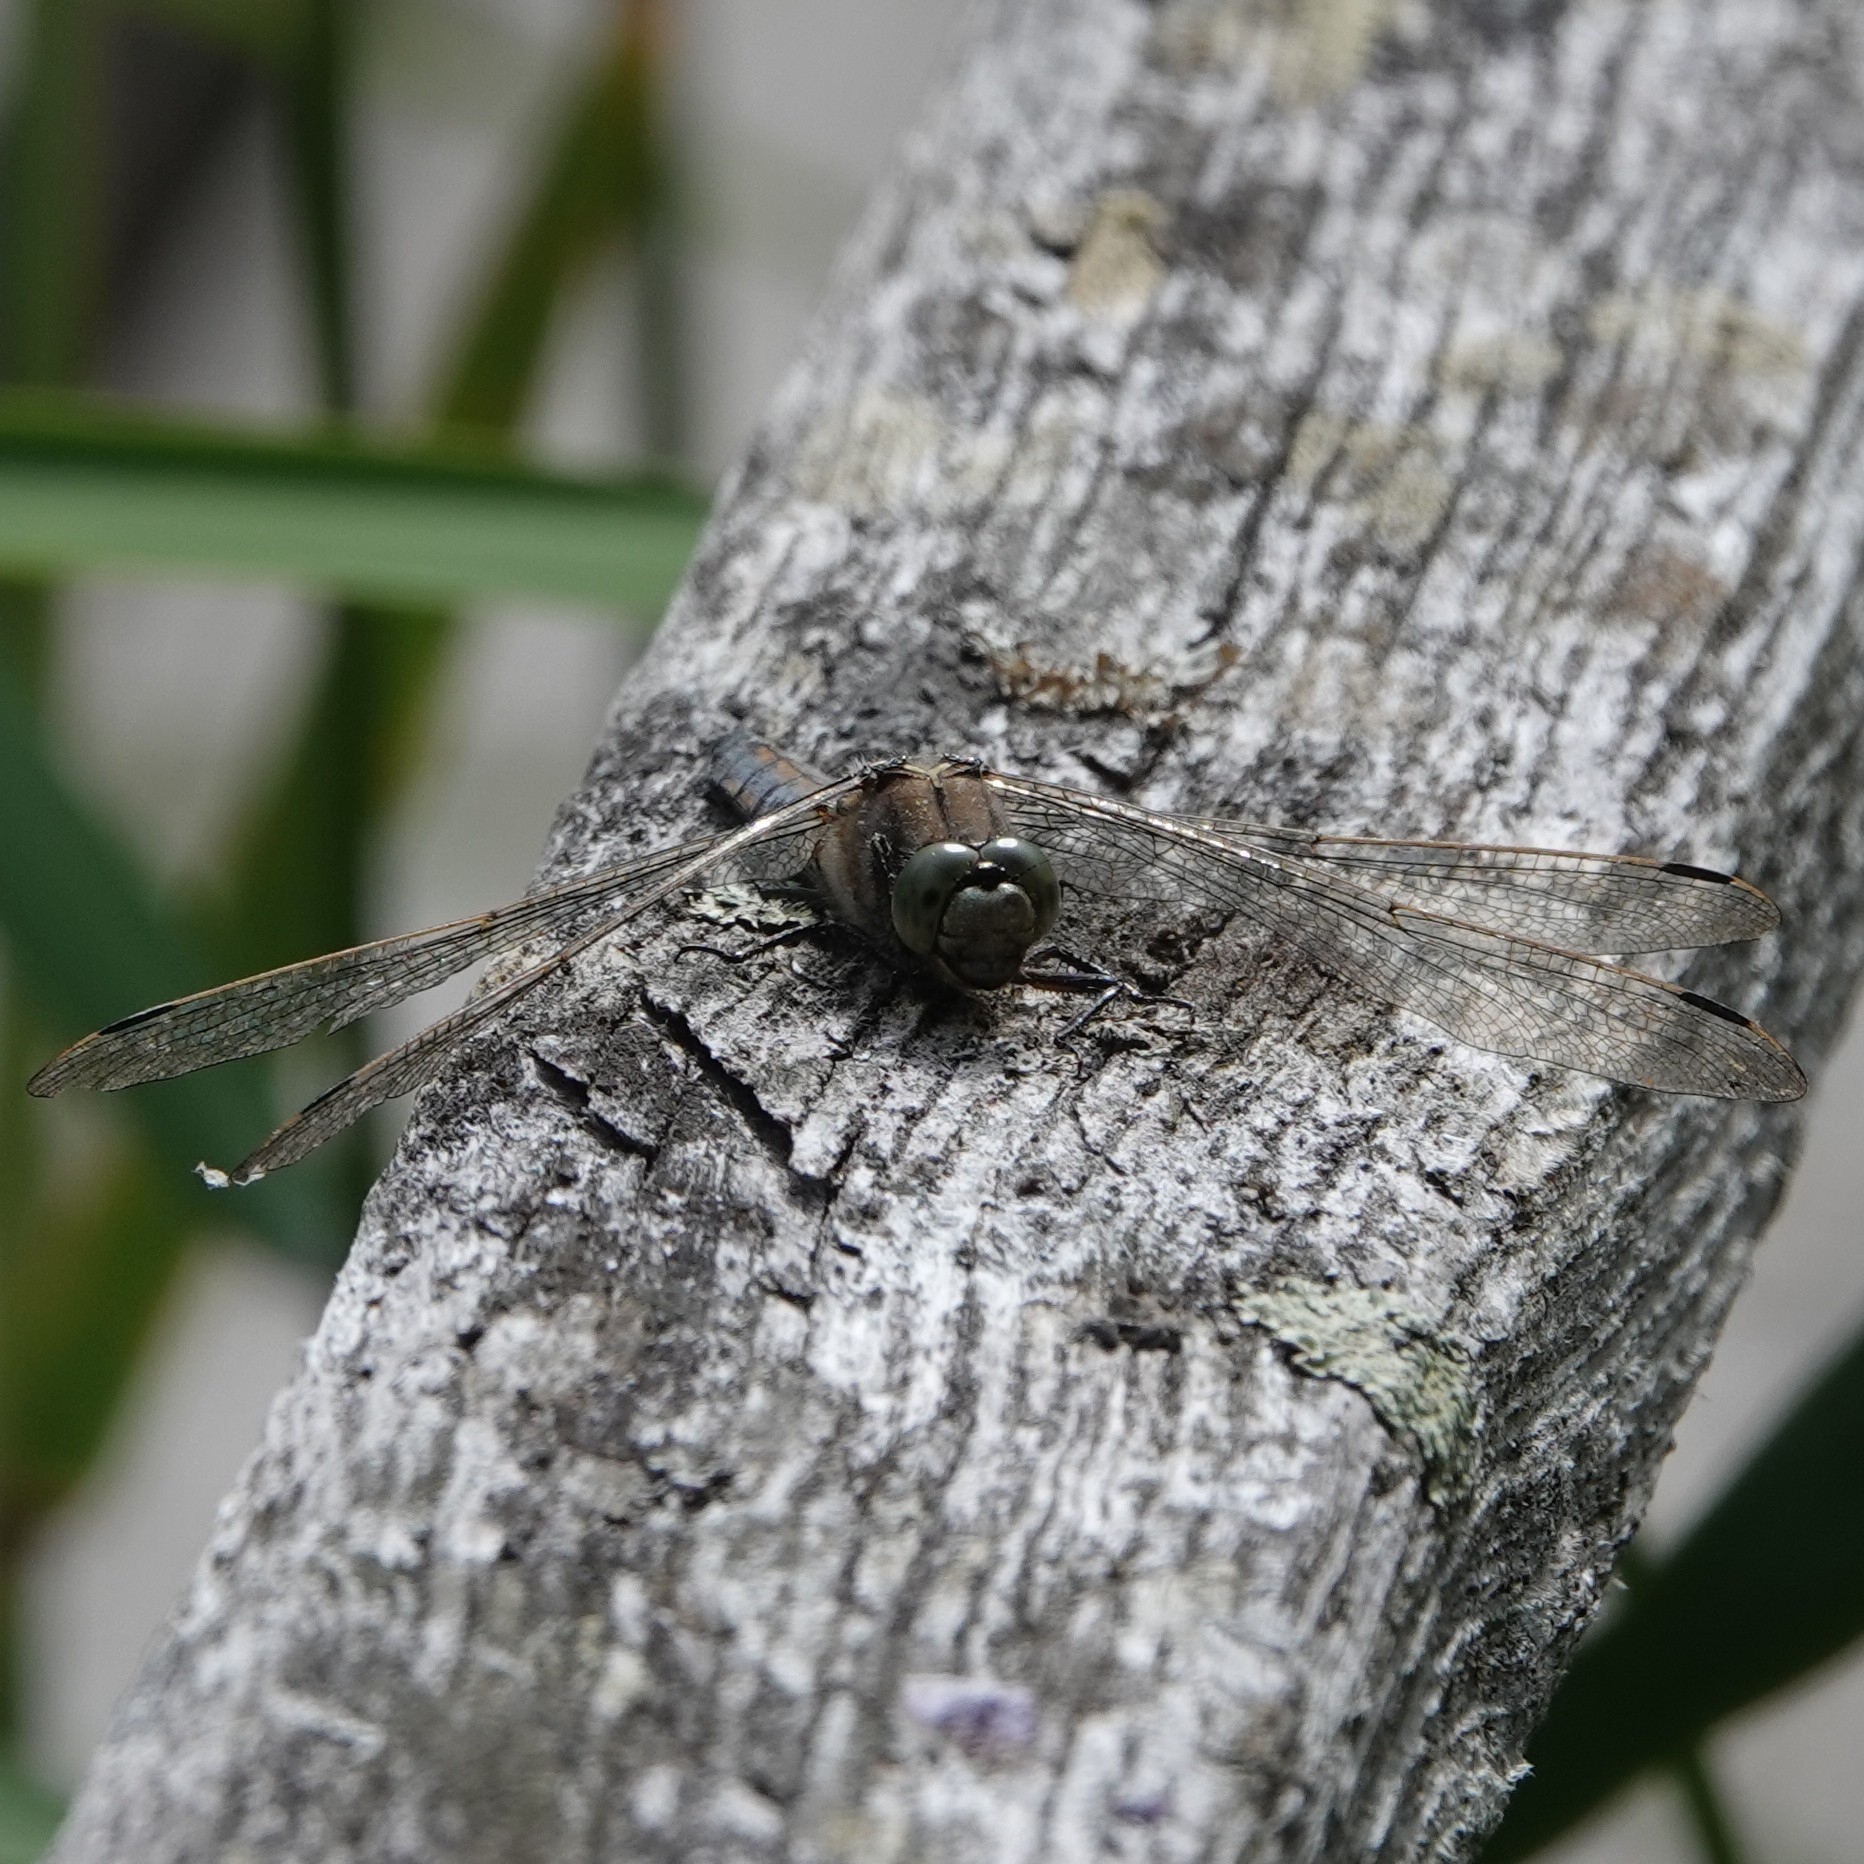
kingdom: Animalia
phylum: Arthropoda
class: Insecta
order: Odonata
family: Libellulidae
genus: Orthetrum
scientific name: Orthetrum cancellatum
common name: Black-tailed skimmer
